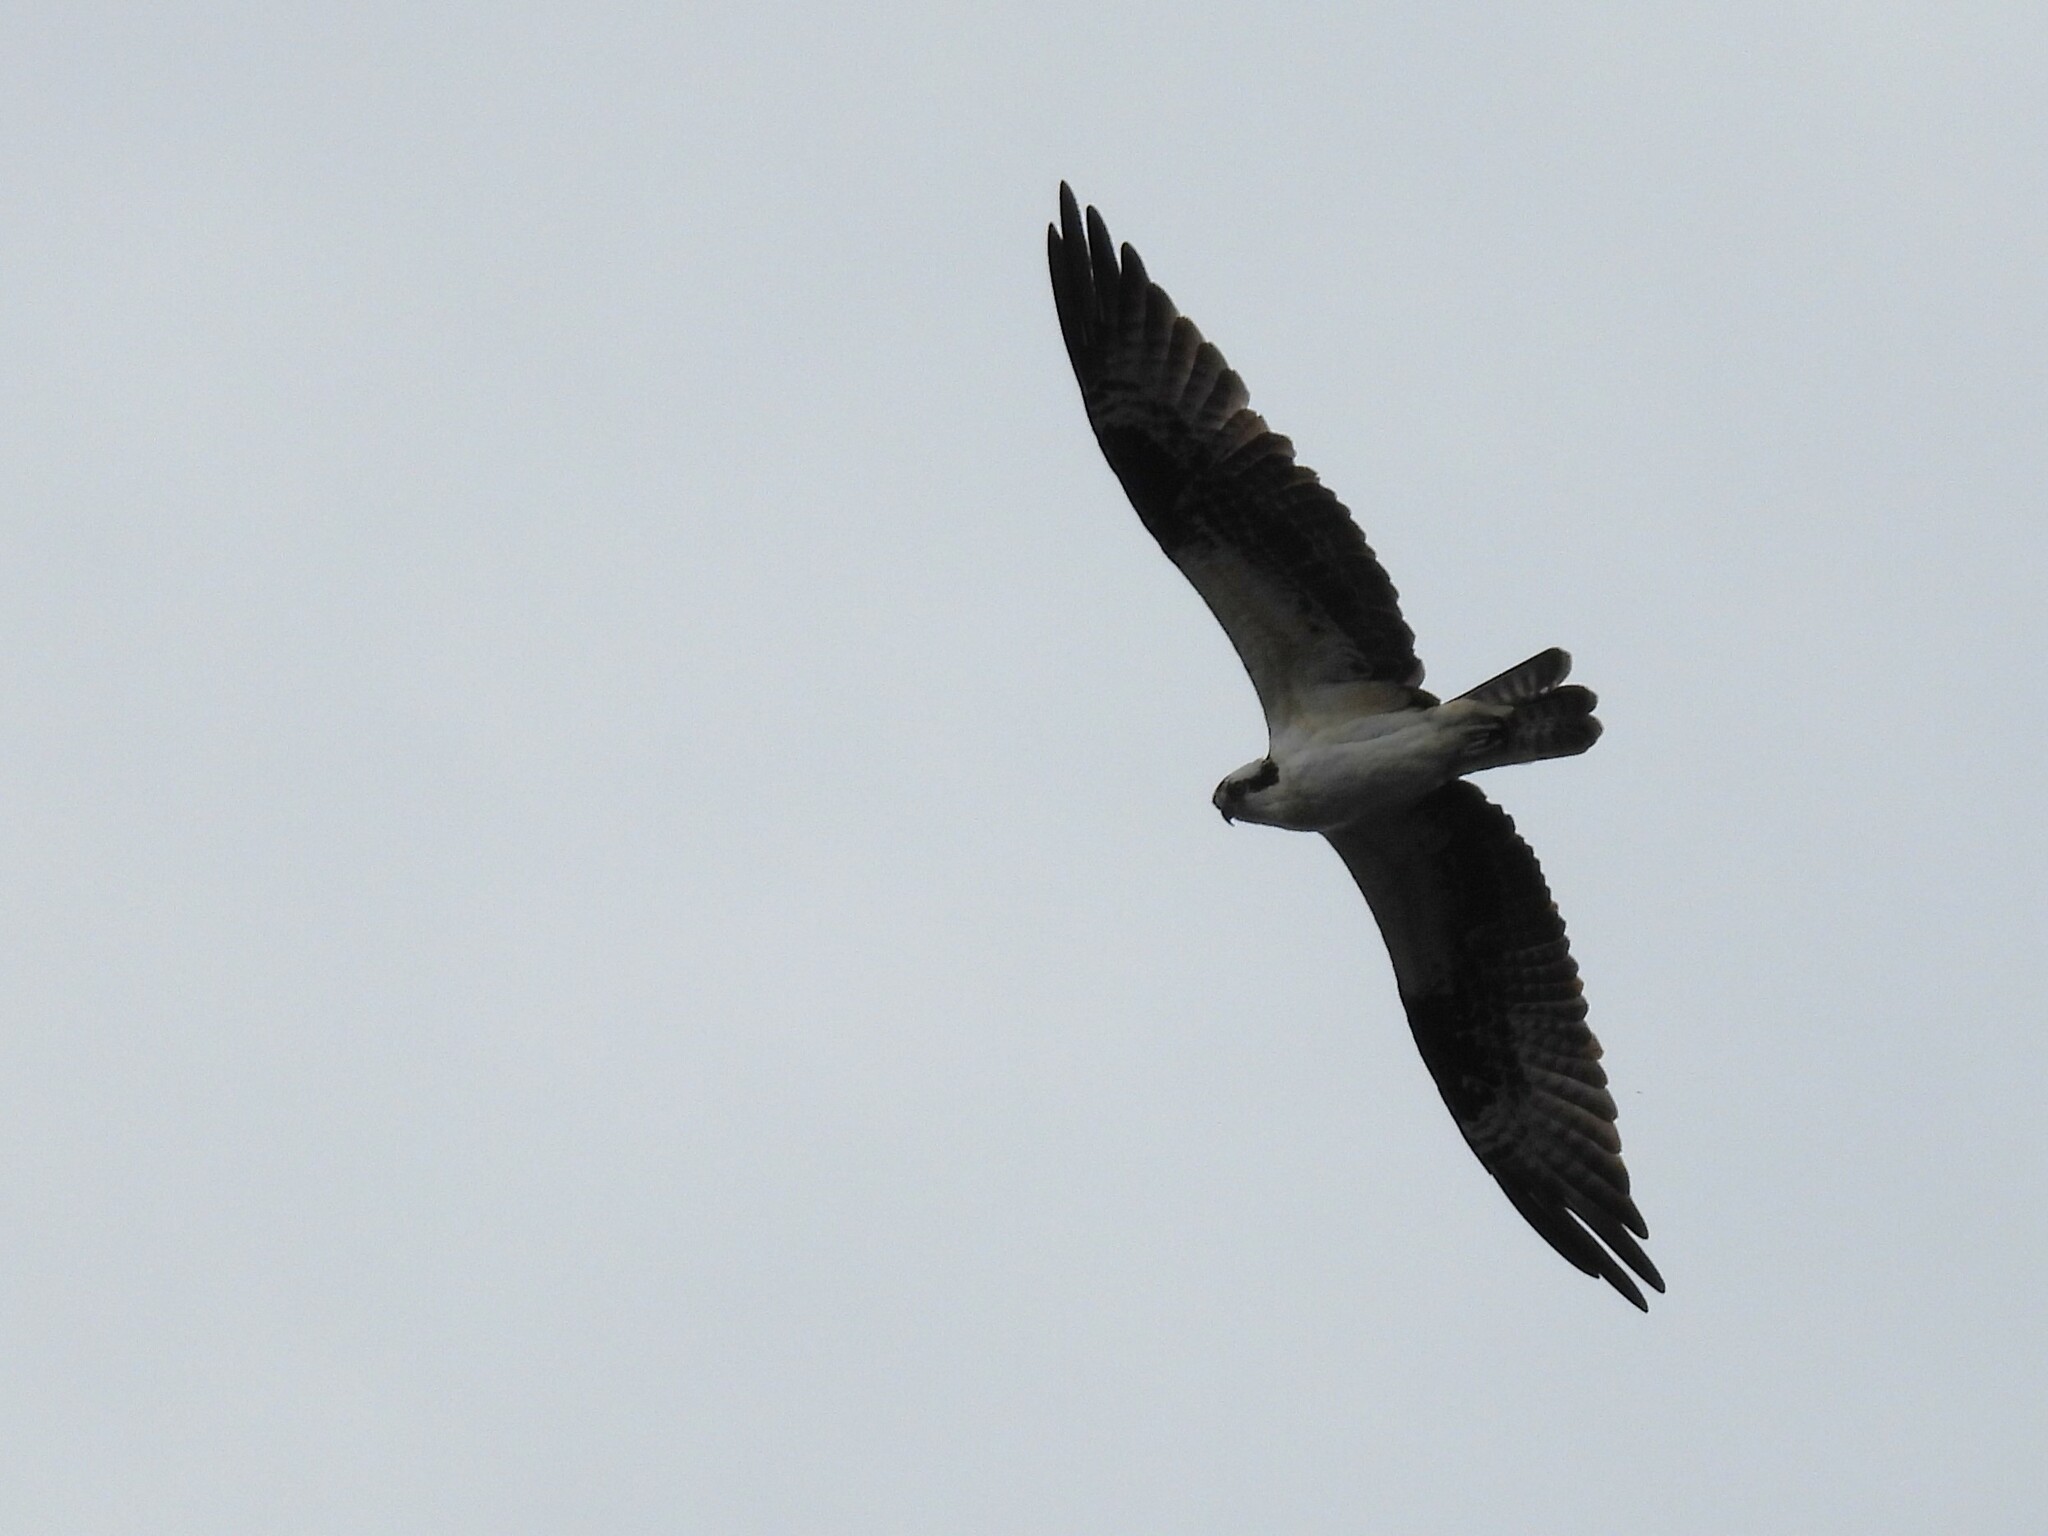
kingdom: Animalia
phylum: Chordata
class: Aves
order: Accipitriformes
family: Pandionidae
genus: Pandion
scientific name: Pandion haliaetus
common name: Osprey
